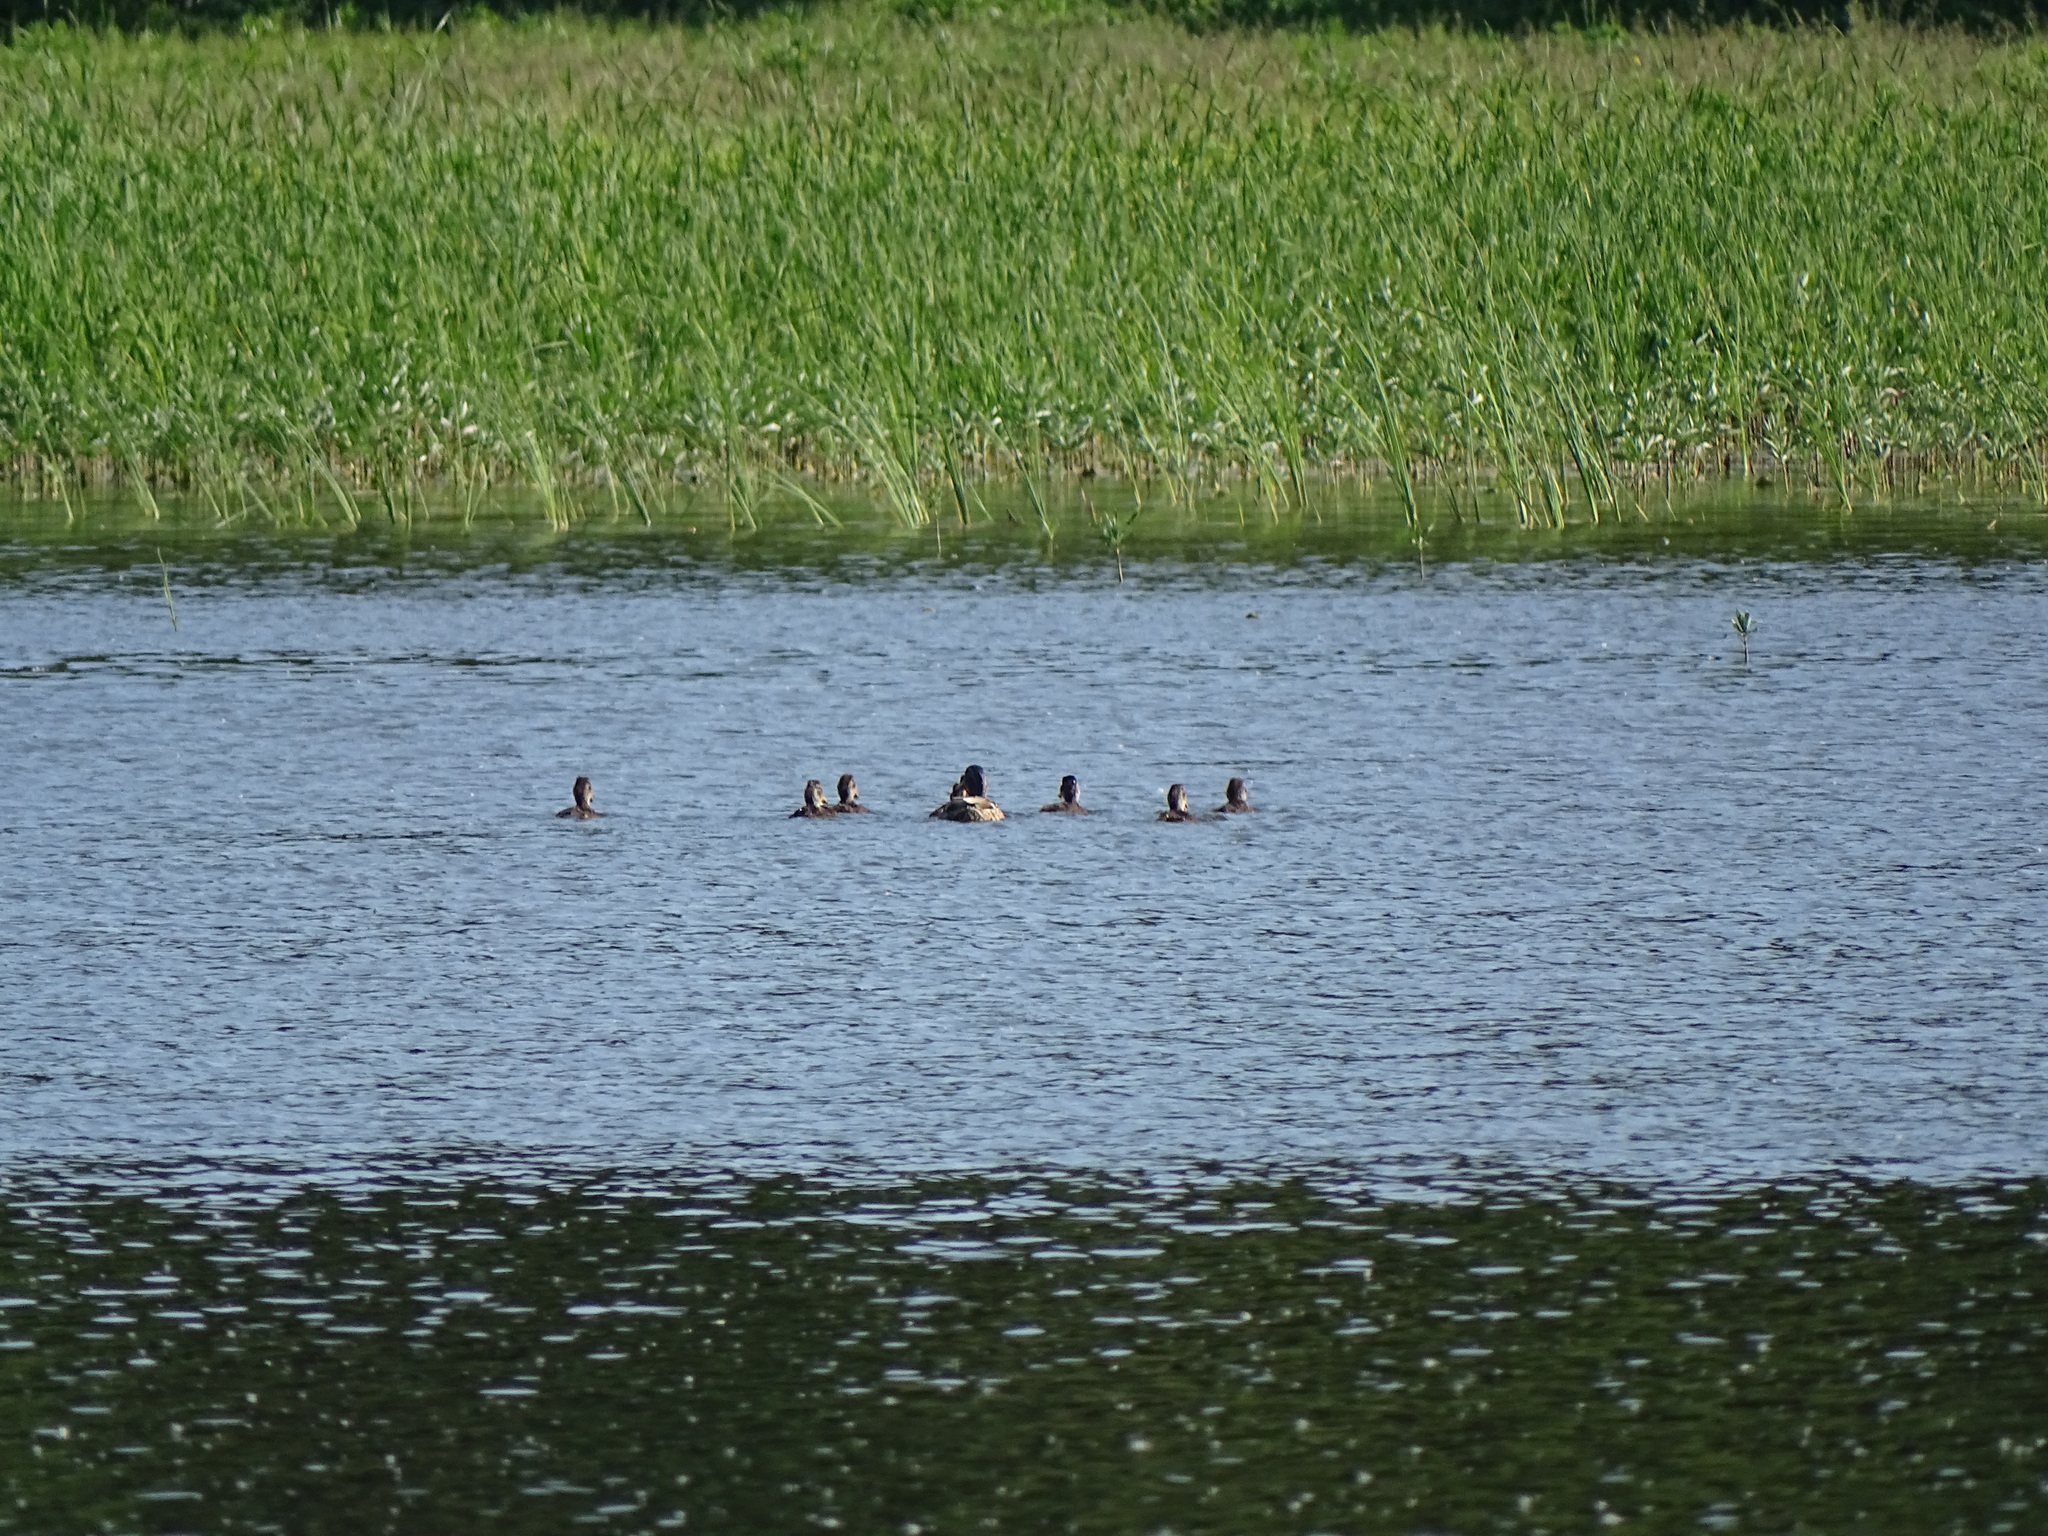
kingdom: Animalia
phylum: Chordata
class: Aves
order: Anseriformes
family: Anatidae
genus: Anas
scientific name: Anas platyrhynchos
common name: Mallard
